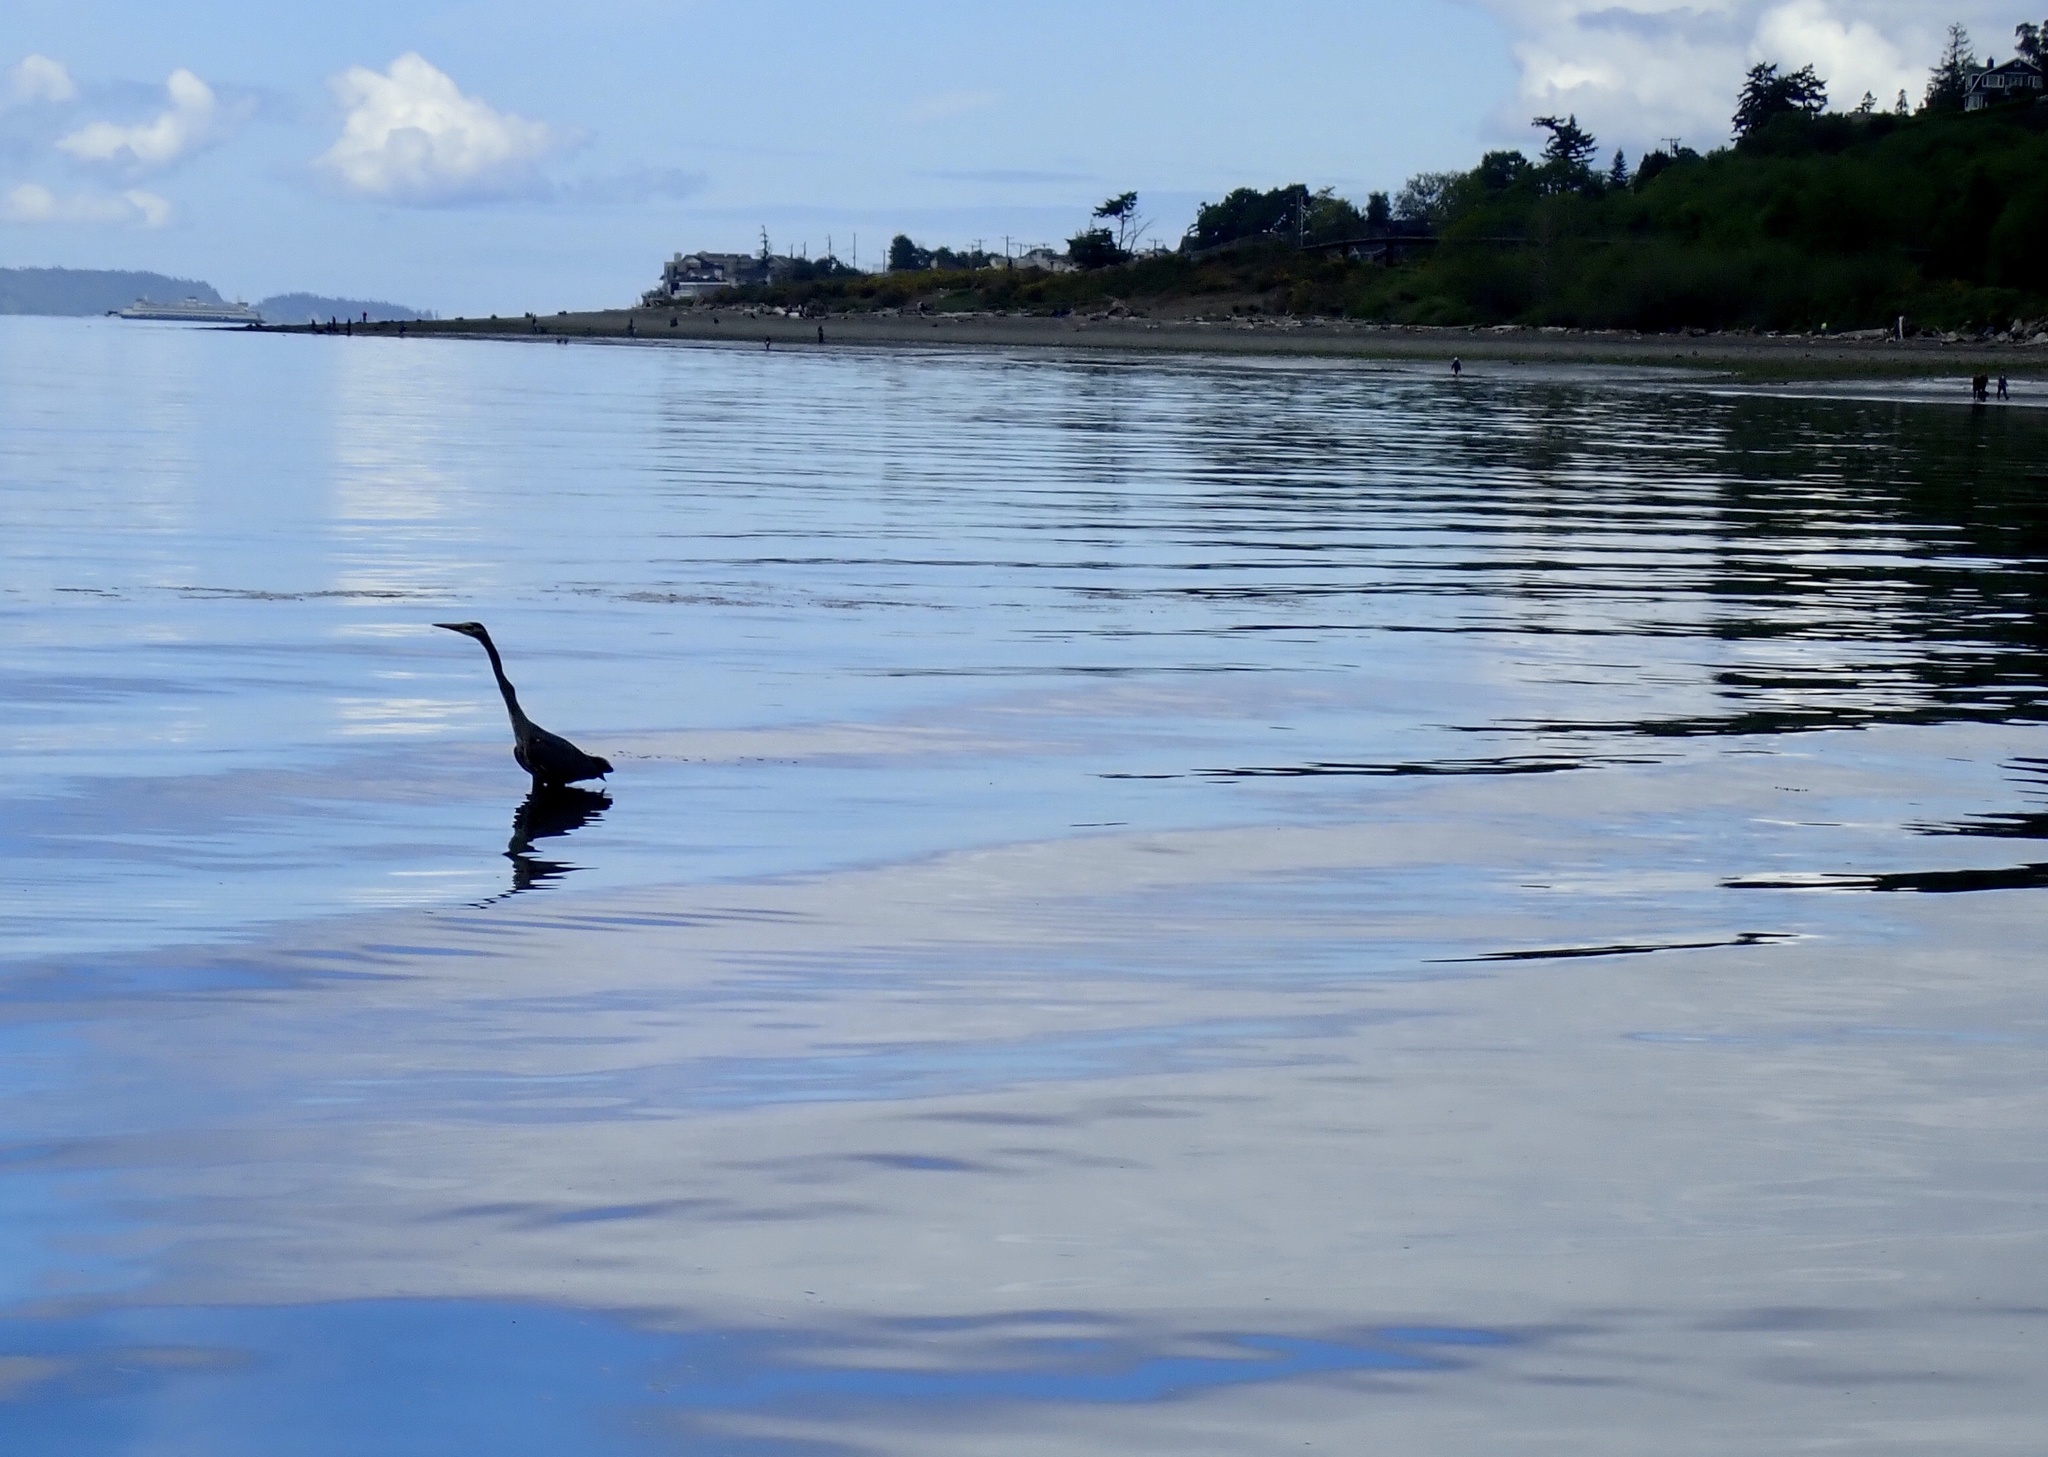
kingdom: Animalia
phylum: Chordata
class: Aves
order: Pelecaniformes
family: Ardeidae
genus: Ardea
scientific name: Ardea herodias
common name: Great blue heron
